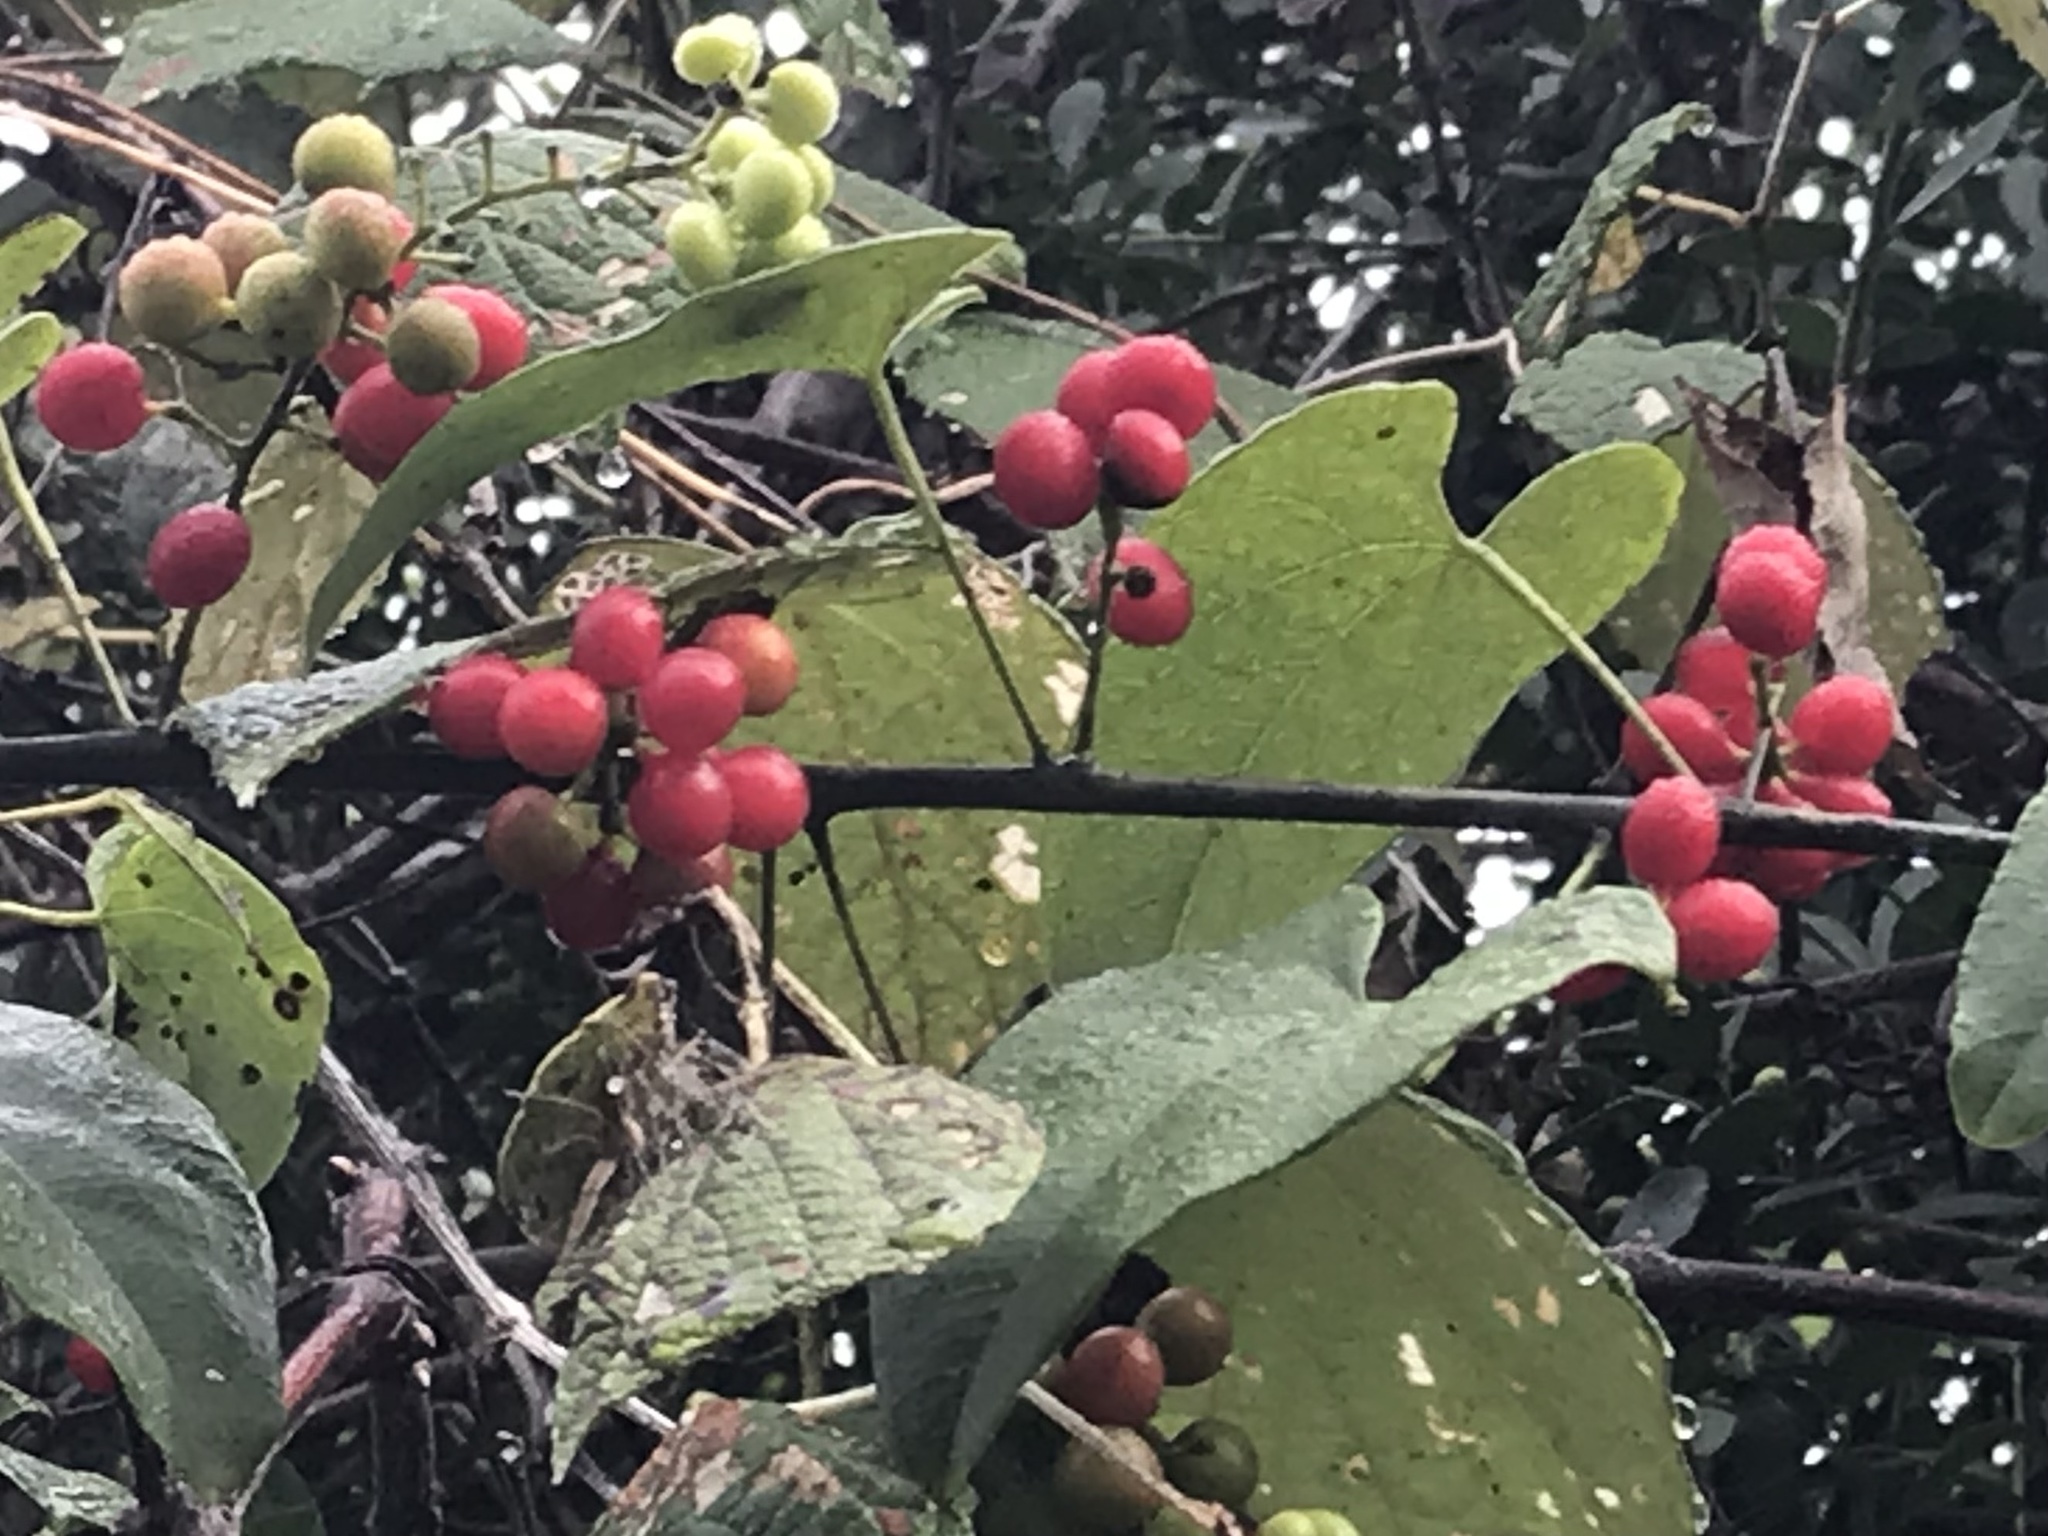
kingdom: Plantae
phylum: Tracheophyta
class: Magnoliopsida
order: Ranunculales
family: Menispermaceae
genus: Cocculus
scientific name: Cocculus carolinus
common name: Carolina moonseed
